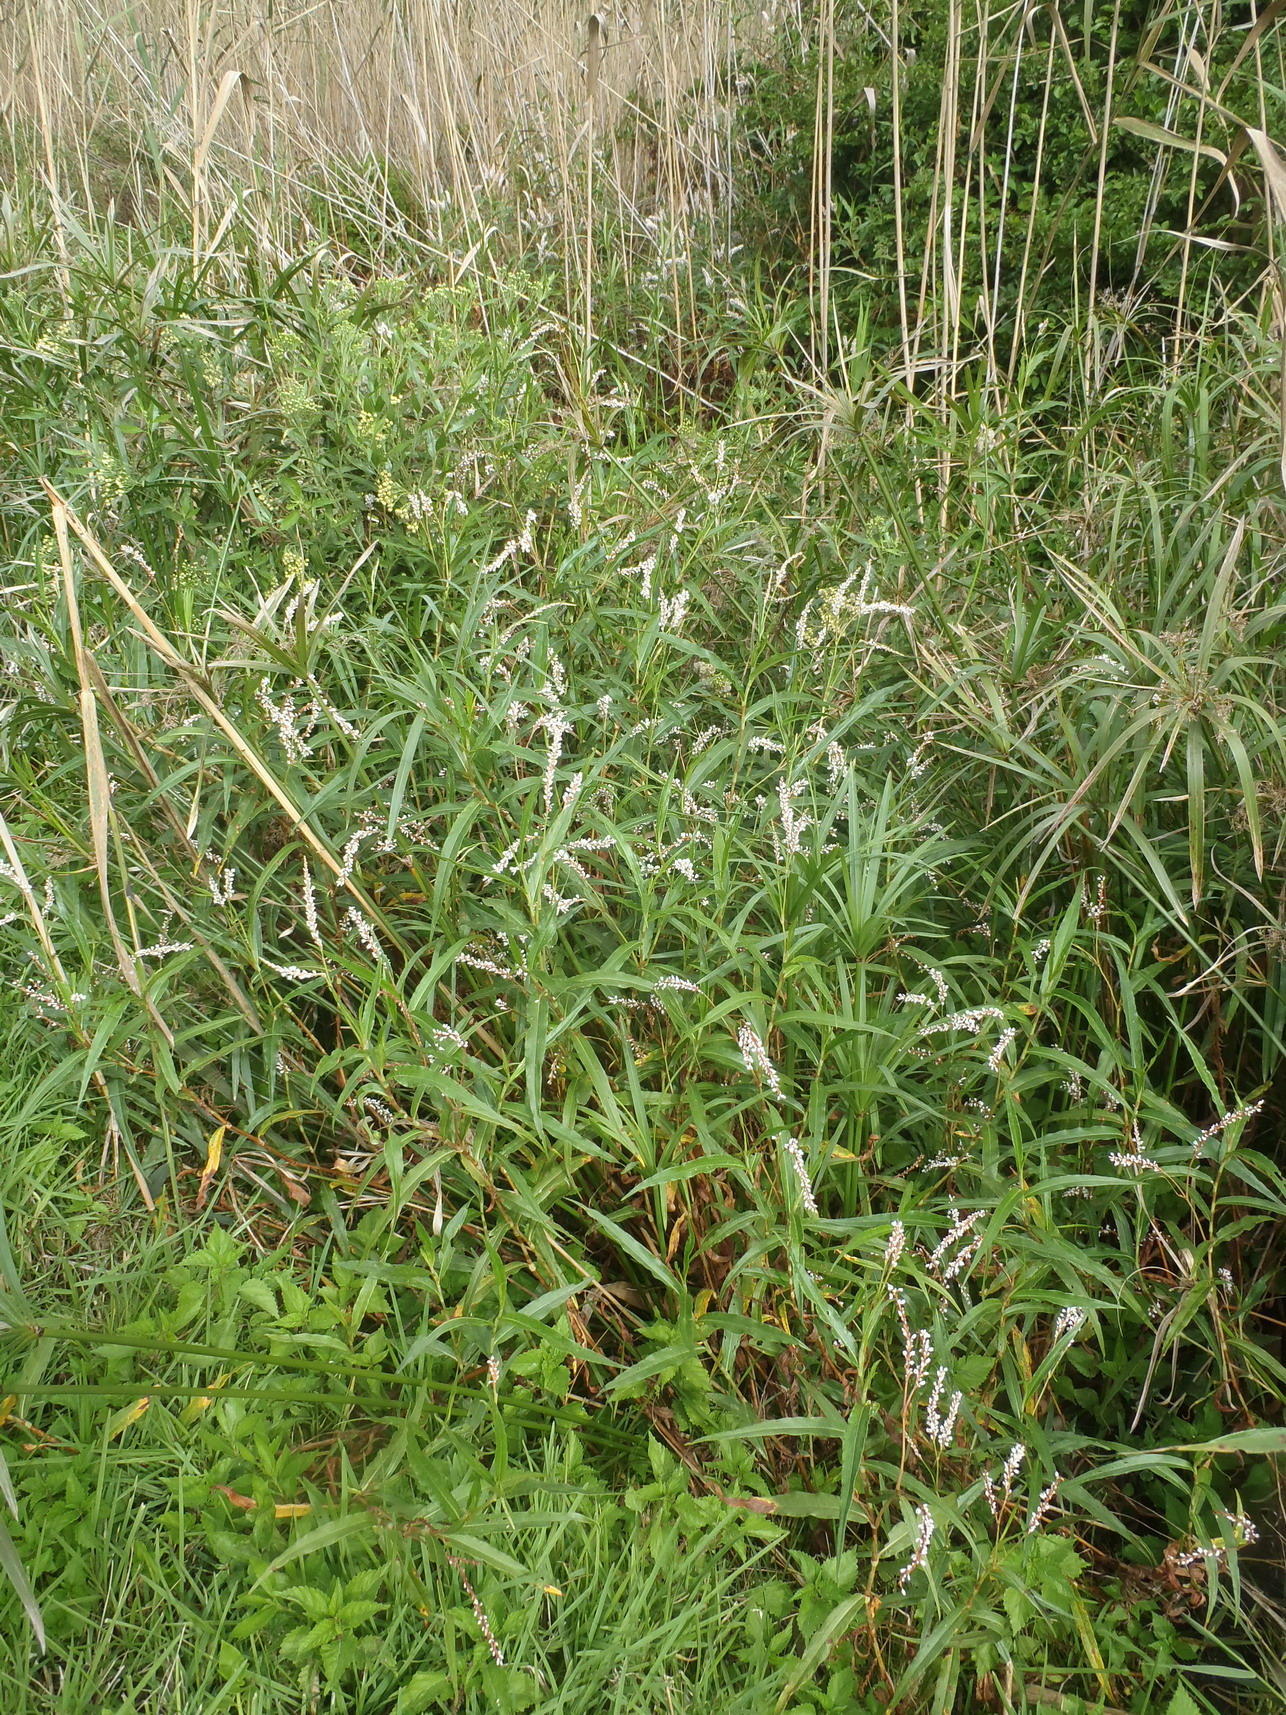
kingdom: Plantae
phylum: Tracheophyta
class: Magnoliopsida
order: Caryophyllales
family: Polygonaceae
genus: Persicaria
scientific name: Persicaria madagascariensis
